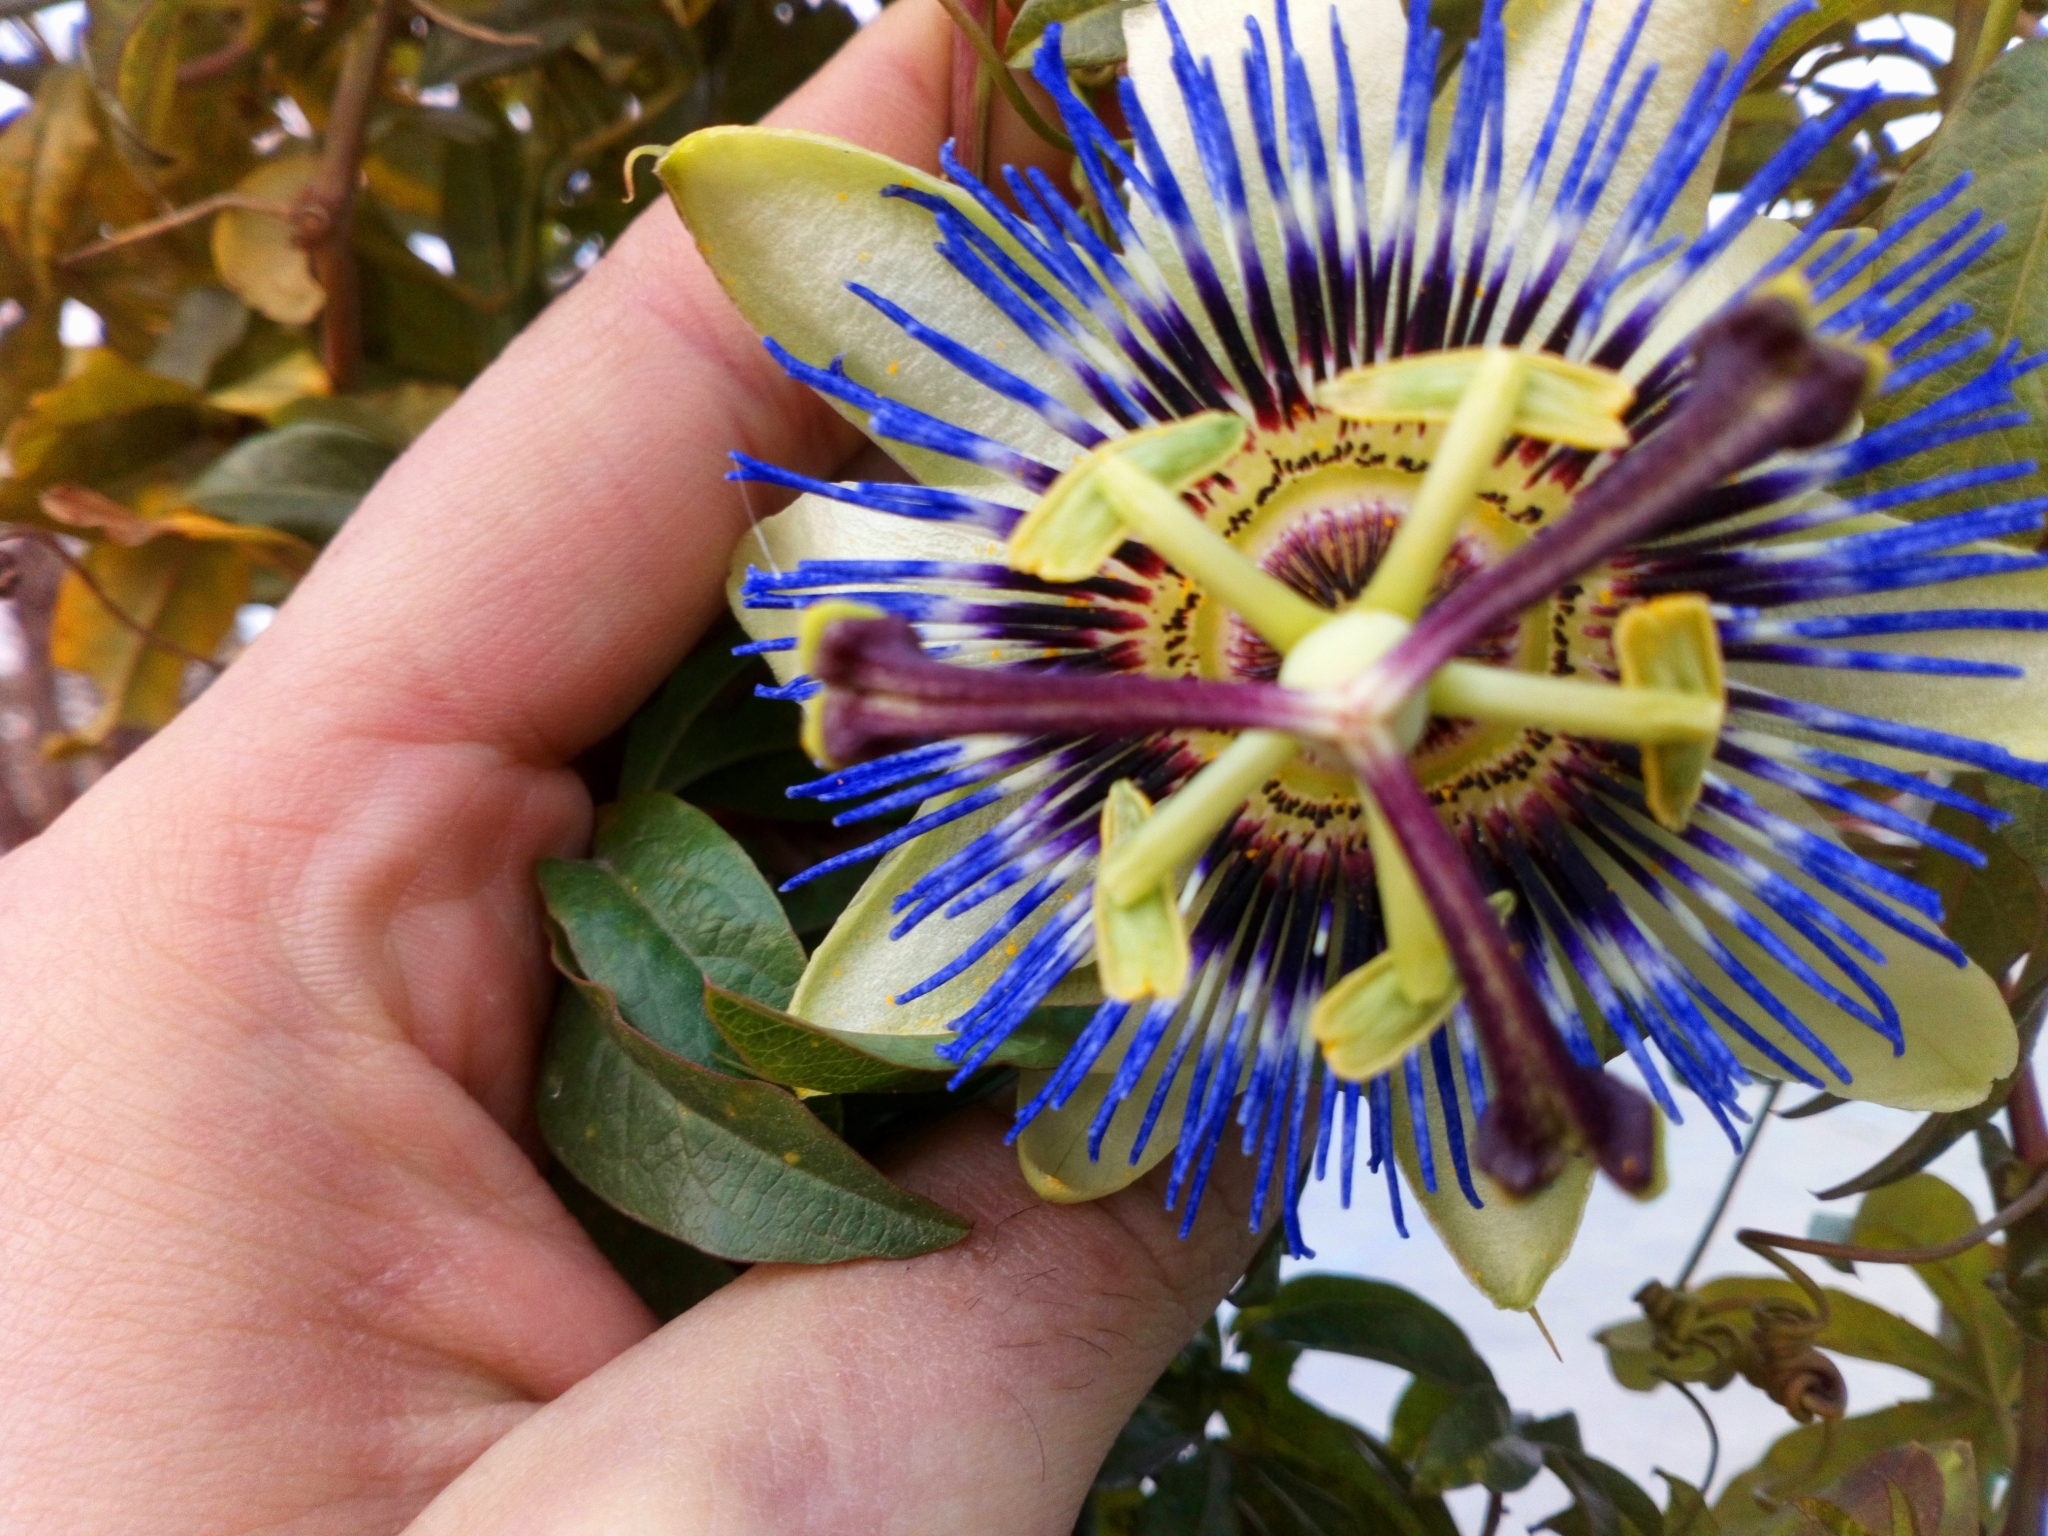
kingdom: Plantae
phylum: Tracheophyta
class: Magnoliopsida
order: Malpighiales
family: Passifloraceae
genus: Passiflora
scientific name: Passiflora caerulea
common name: Blue passionflower
